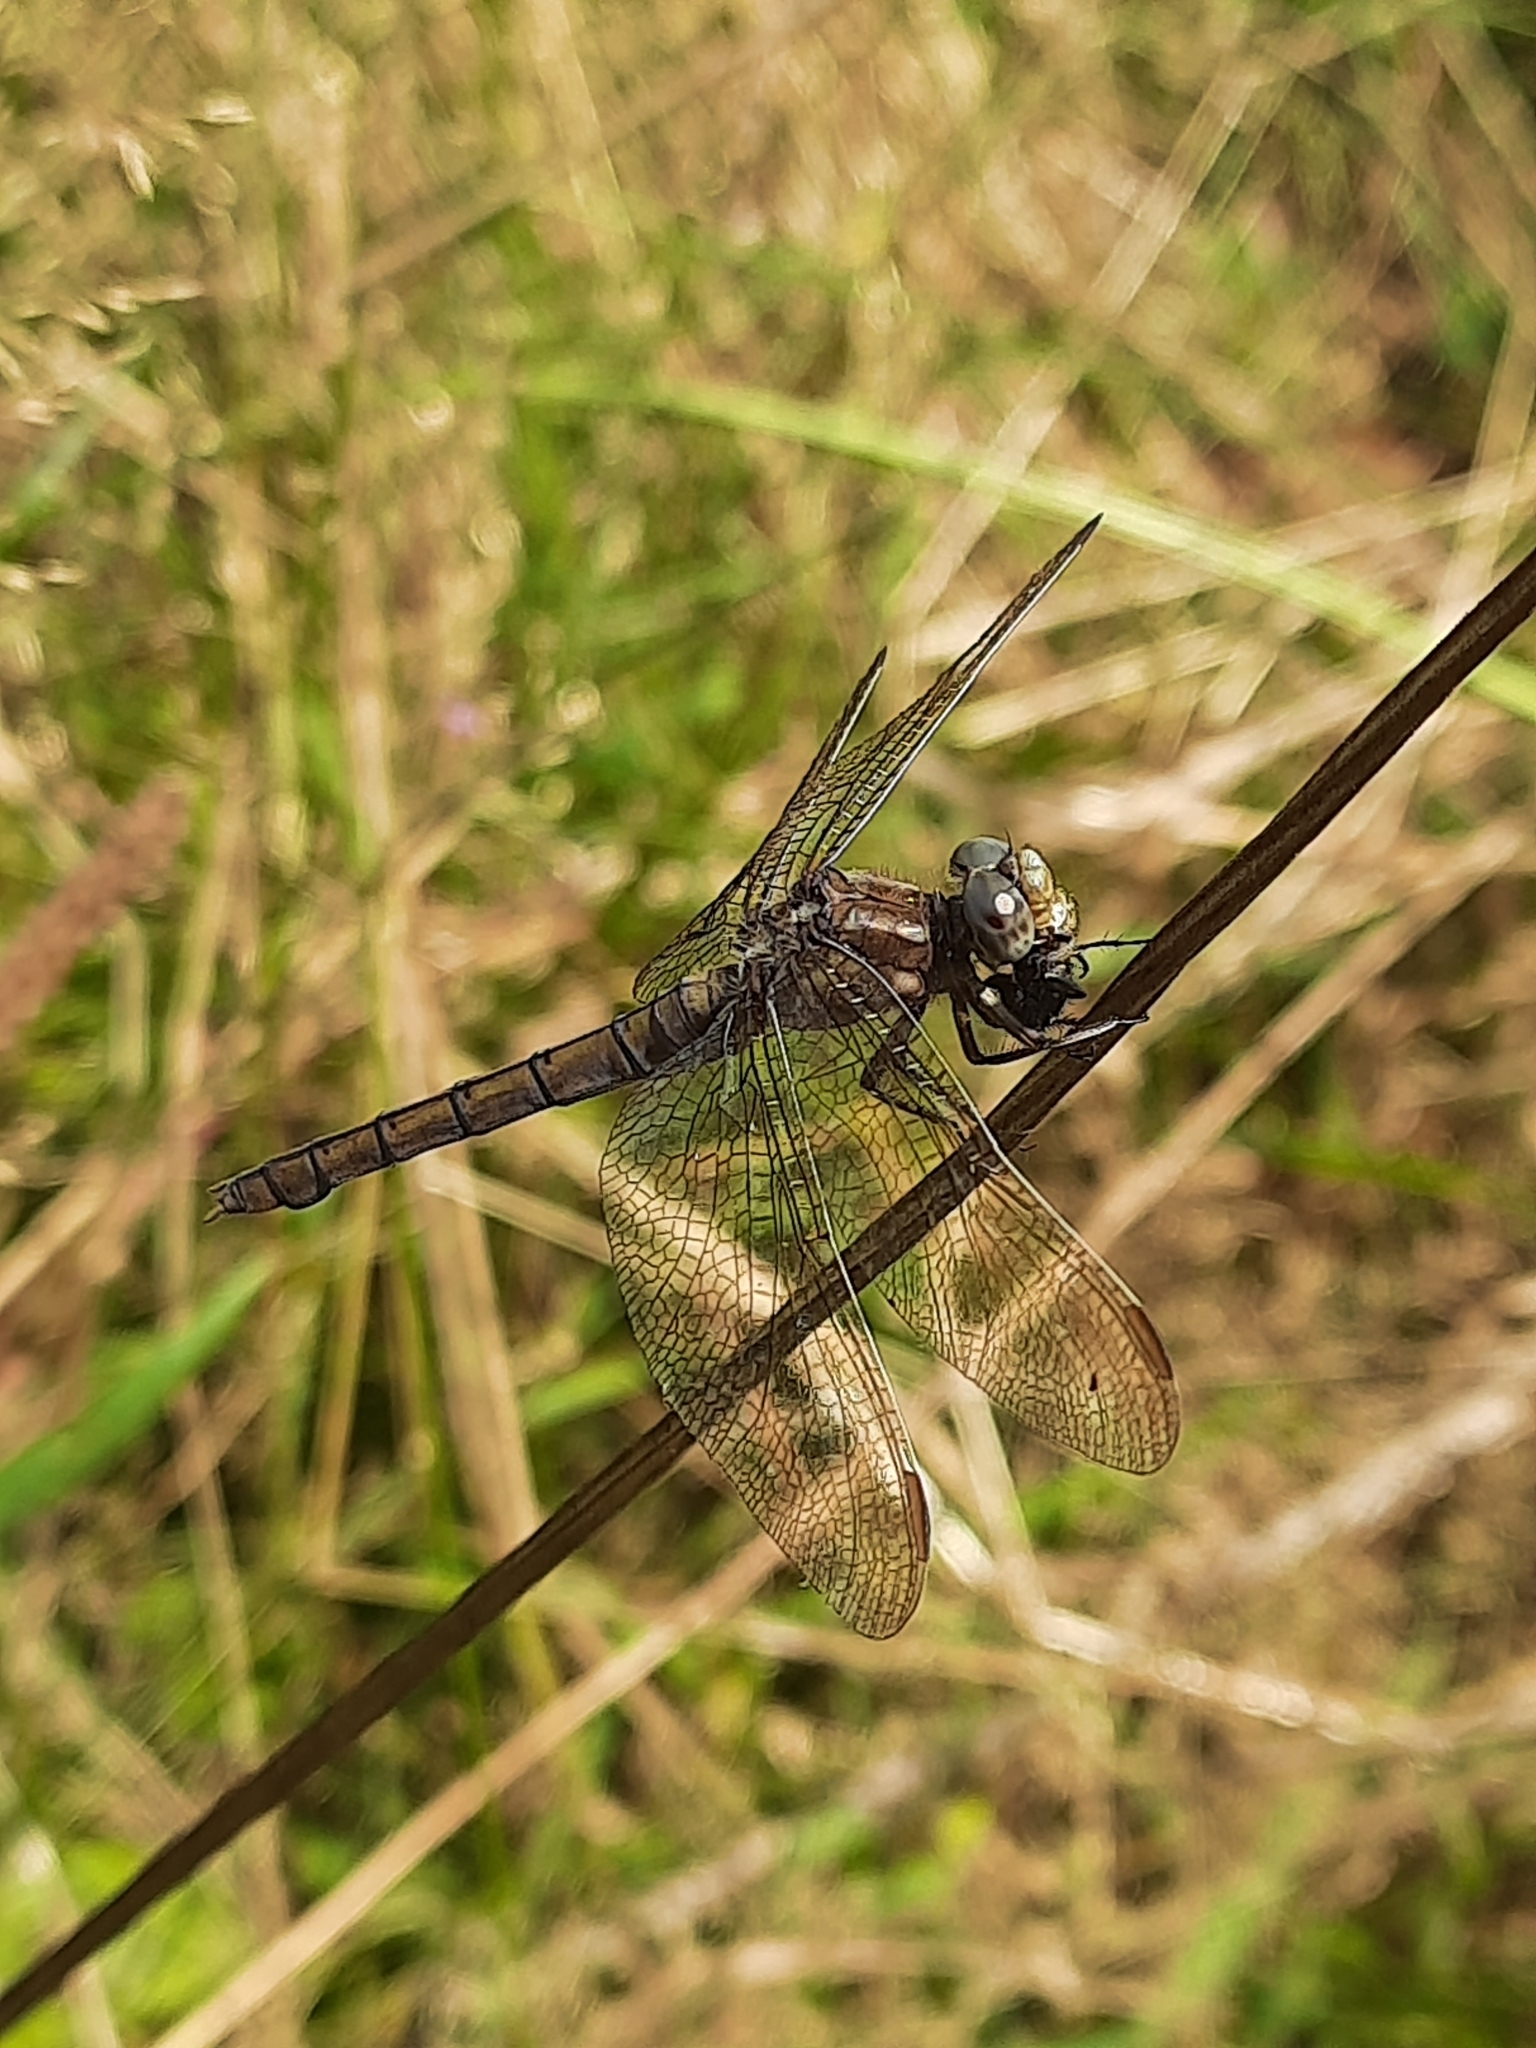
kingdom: Animalia
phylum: Arthropoda
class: Insecta
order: Odonata
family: Libellulidae
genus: Orthetrum
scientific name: Orthetrum coerulescens
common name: Keeled skimmer
